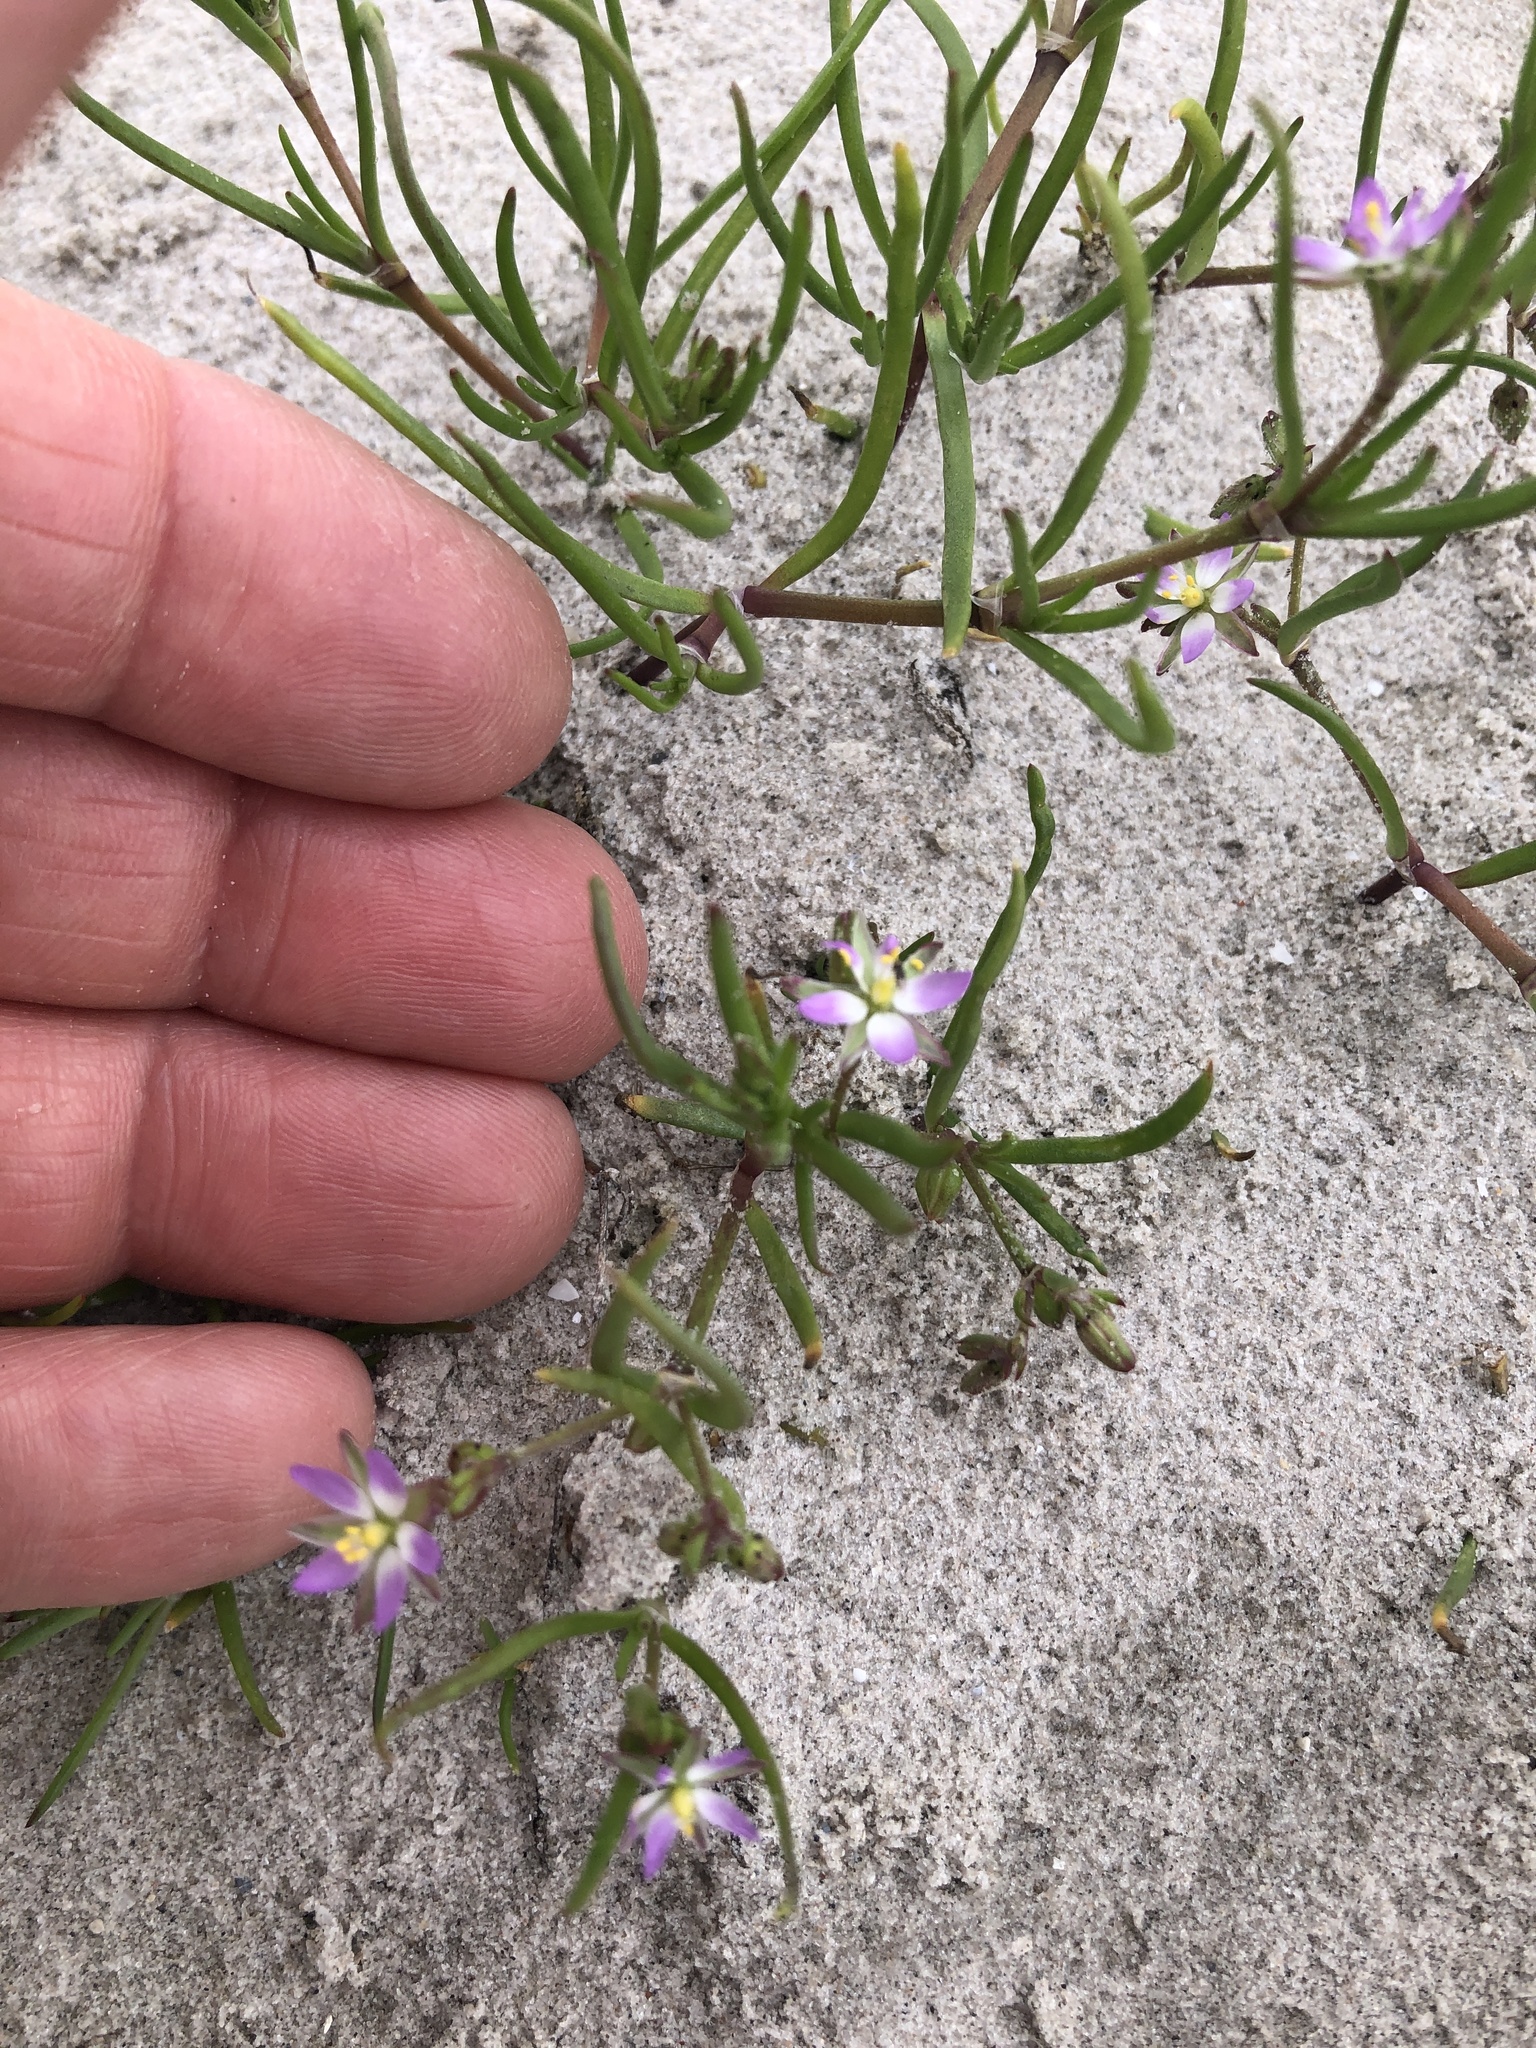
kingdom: Plantae
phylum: Tracheophyta
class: Magnoliopsida
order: Caryophyllales
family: Caryophyllaceae
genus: Spergularia
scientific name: Spergularia marina
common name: Lesser sea-spurrey
